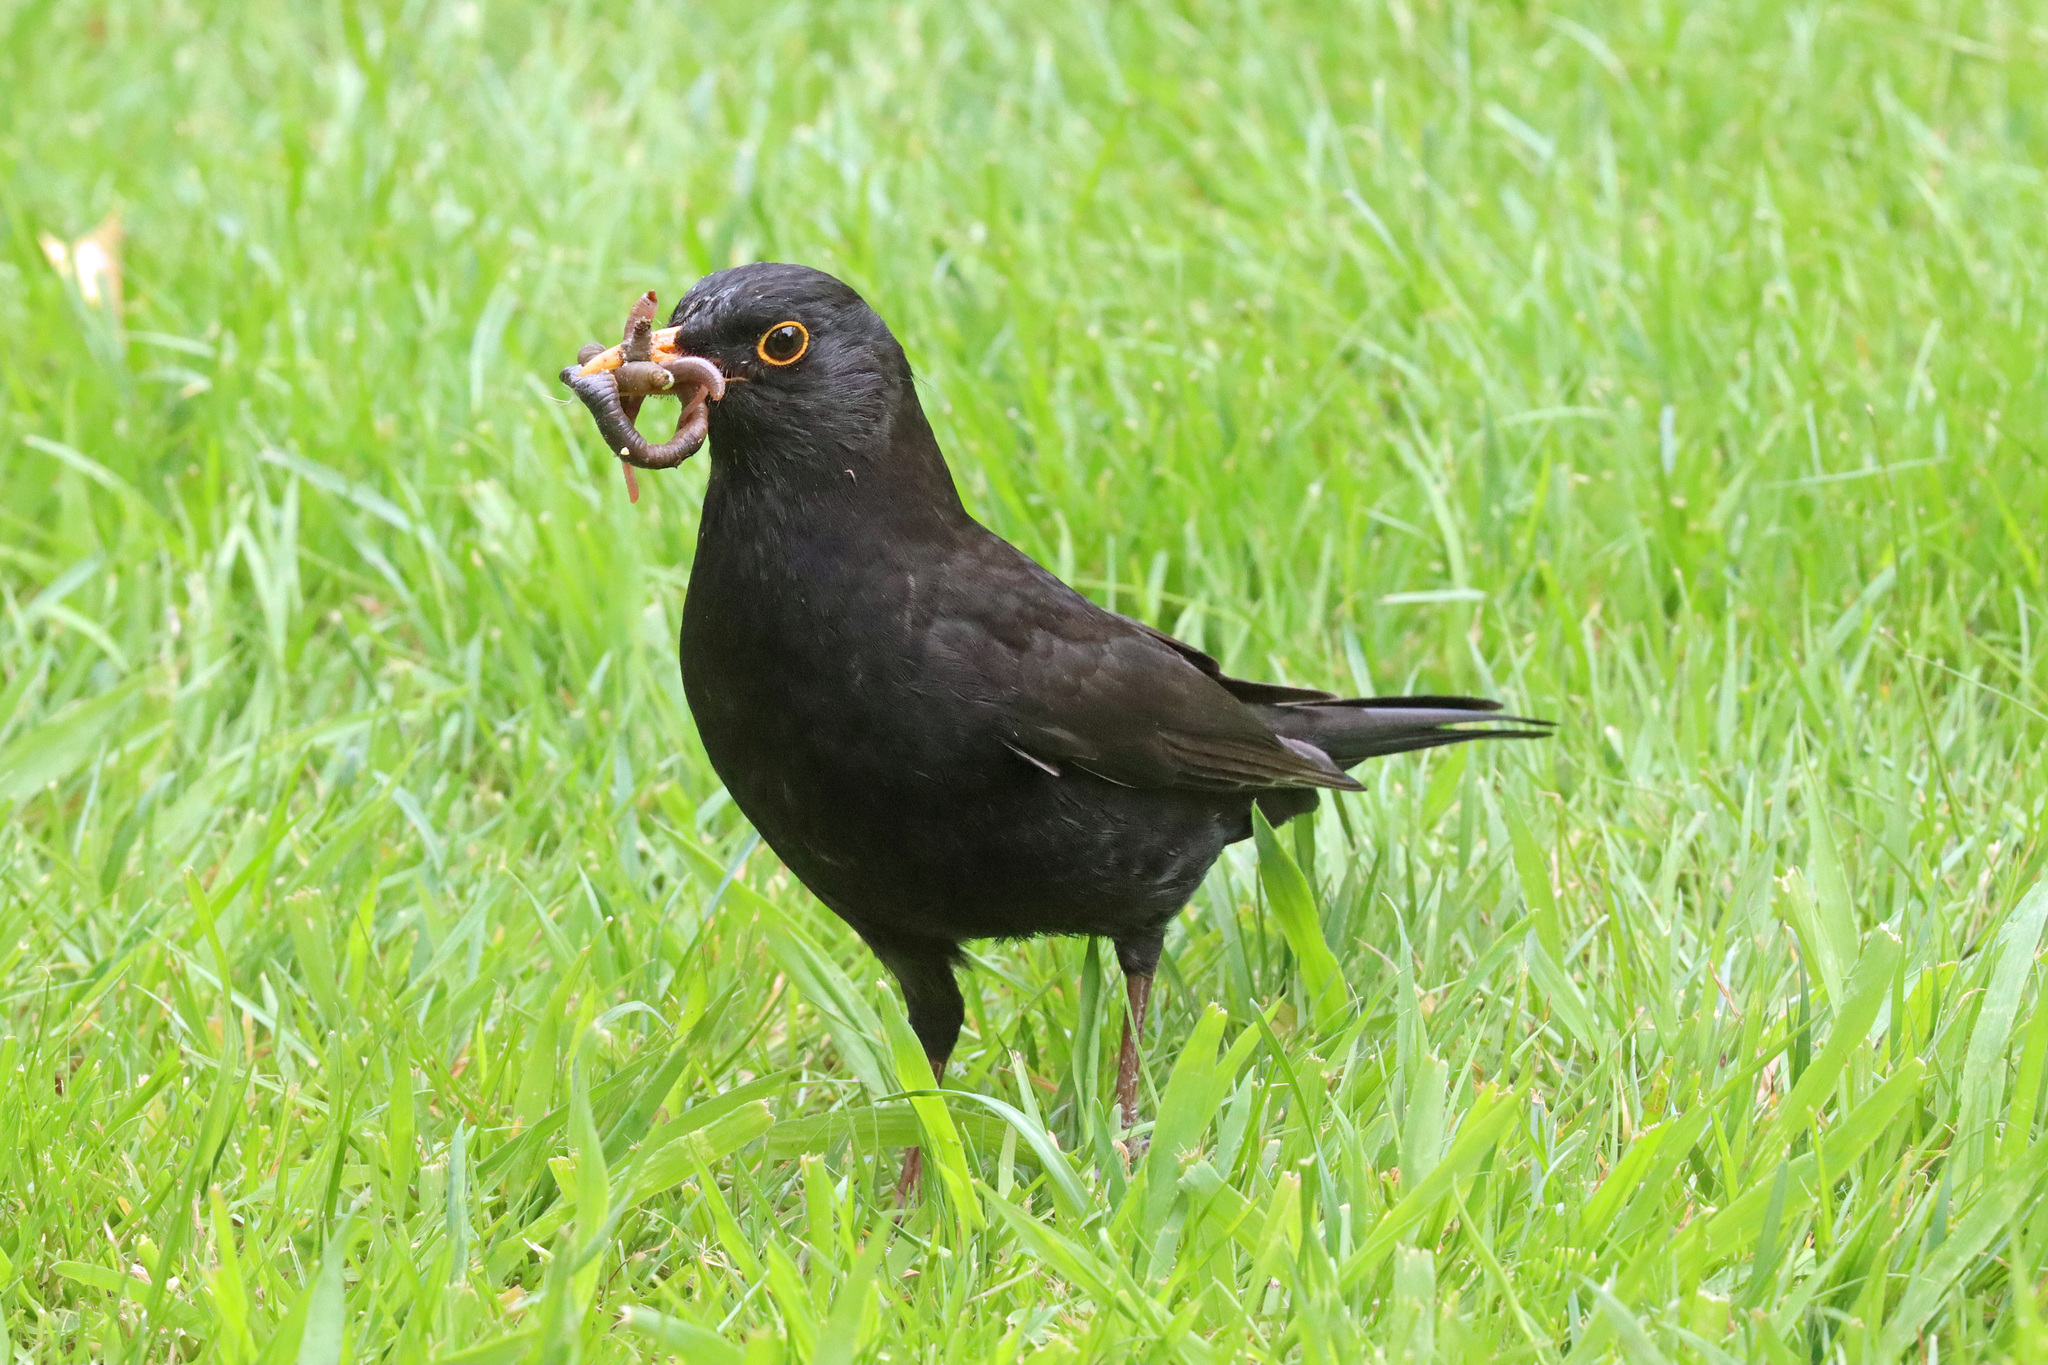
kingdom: Animalia
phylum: Chordata
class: Aves
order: Passeriformes
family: Turdidae
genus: Turdus
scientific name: Turdus merula
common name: Common blackbird
